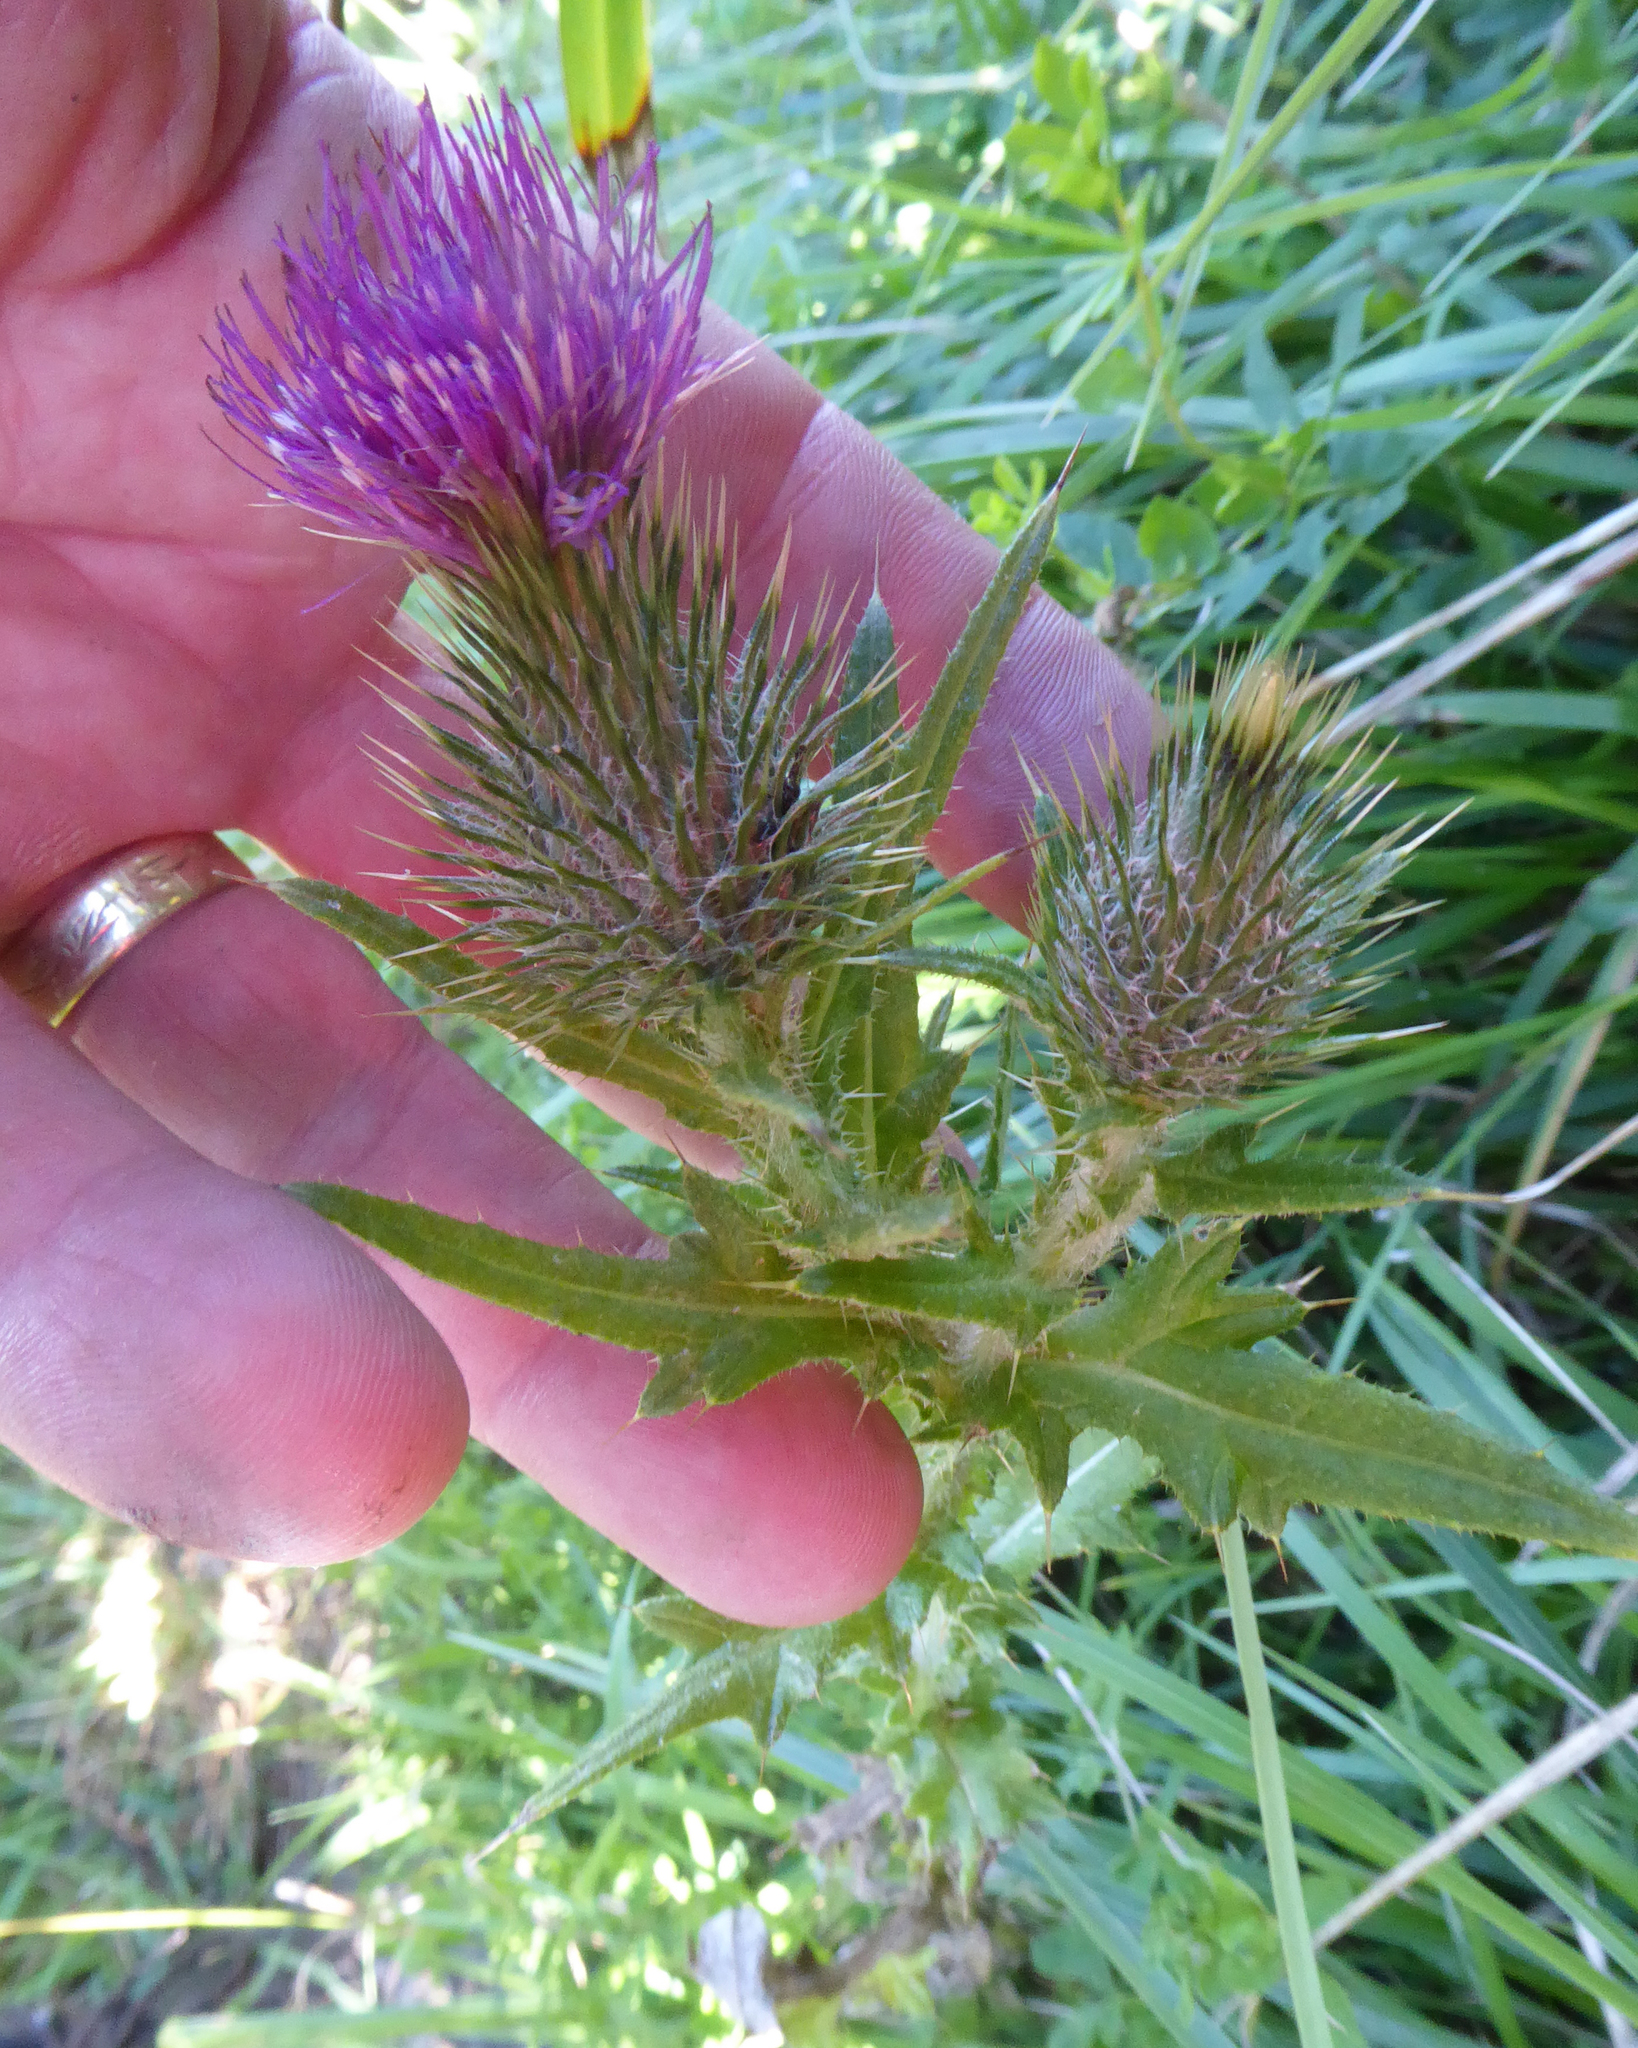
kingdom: Plantae
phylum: Tracheophyta
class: Magnoliopsida
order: Asterales
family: Asteraceae
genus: Cirsium
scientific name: Cirsium vulgare
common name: Bull thistle
